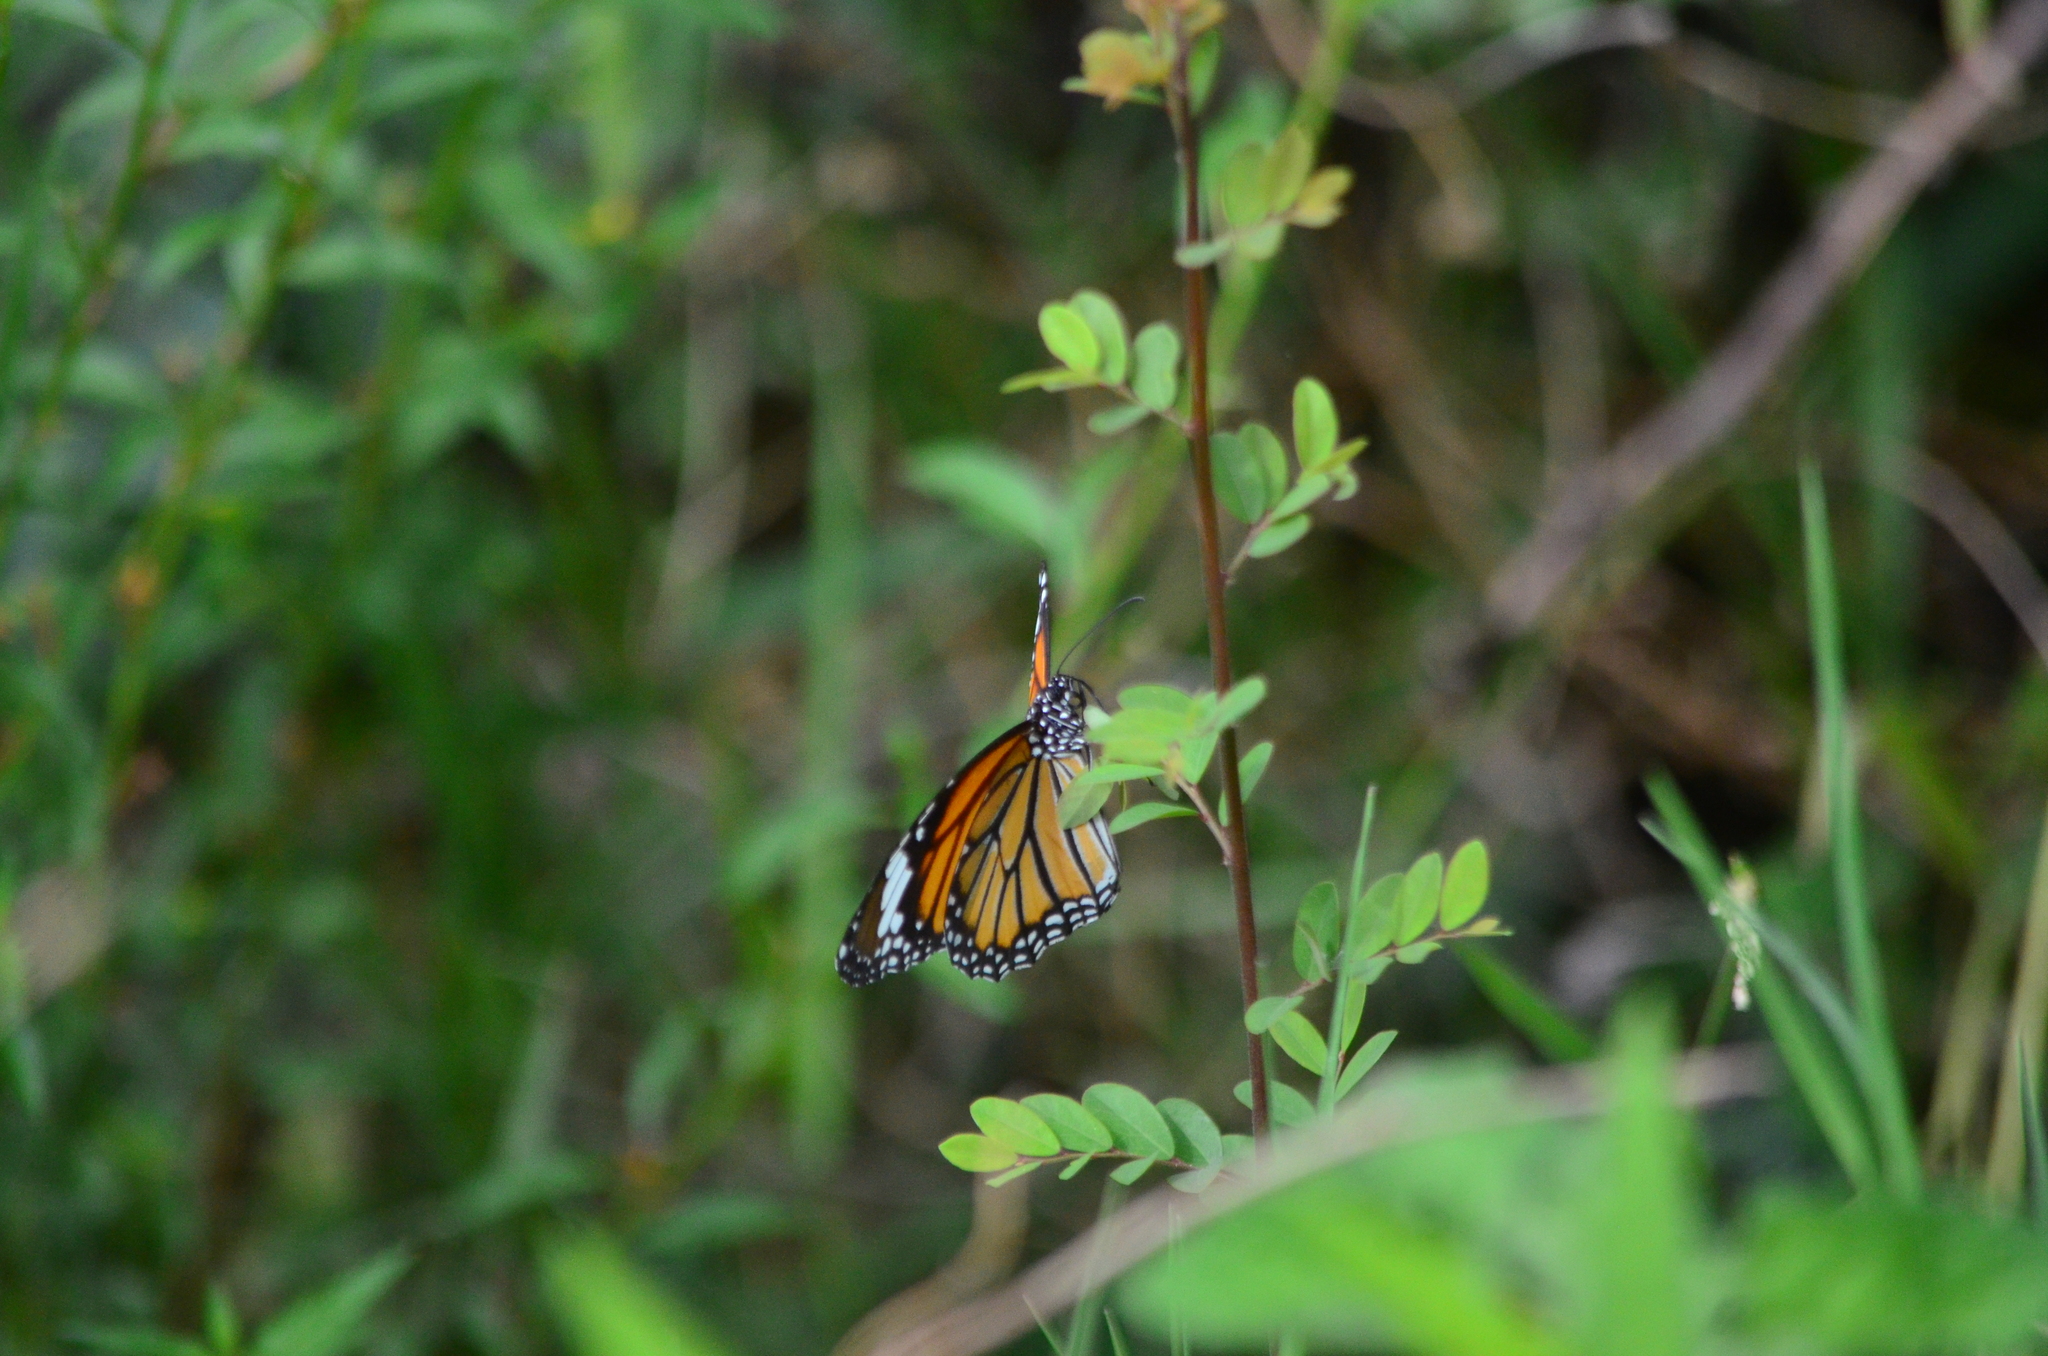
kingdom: Animalia
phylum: Arthropoda
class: Insecta
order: Lepidoptera
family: Nymphalidae
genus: Danaus
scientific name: Danaus genutia
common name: Common tiger butterfly
